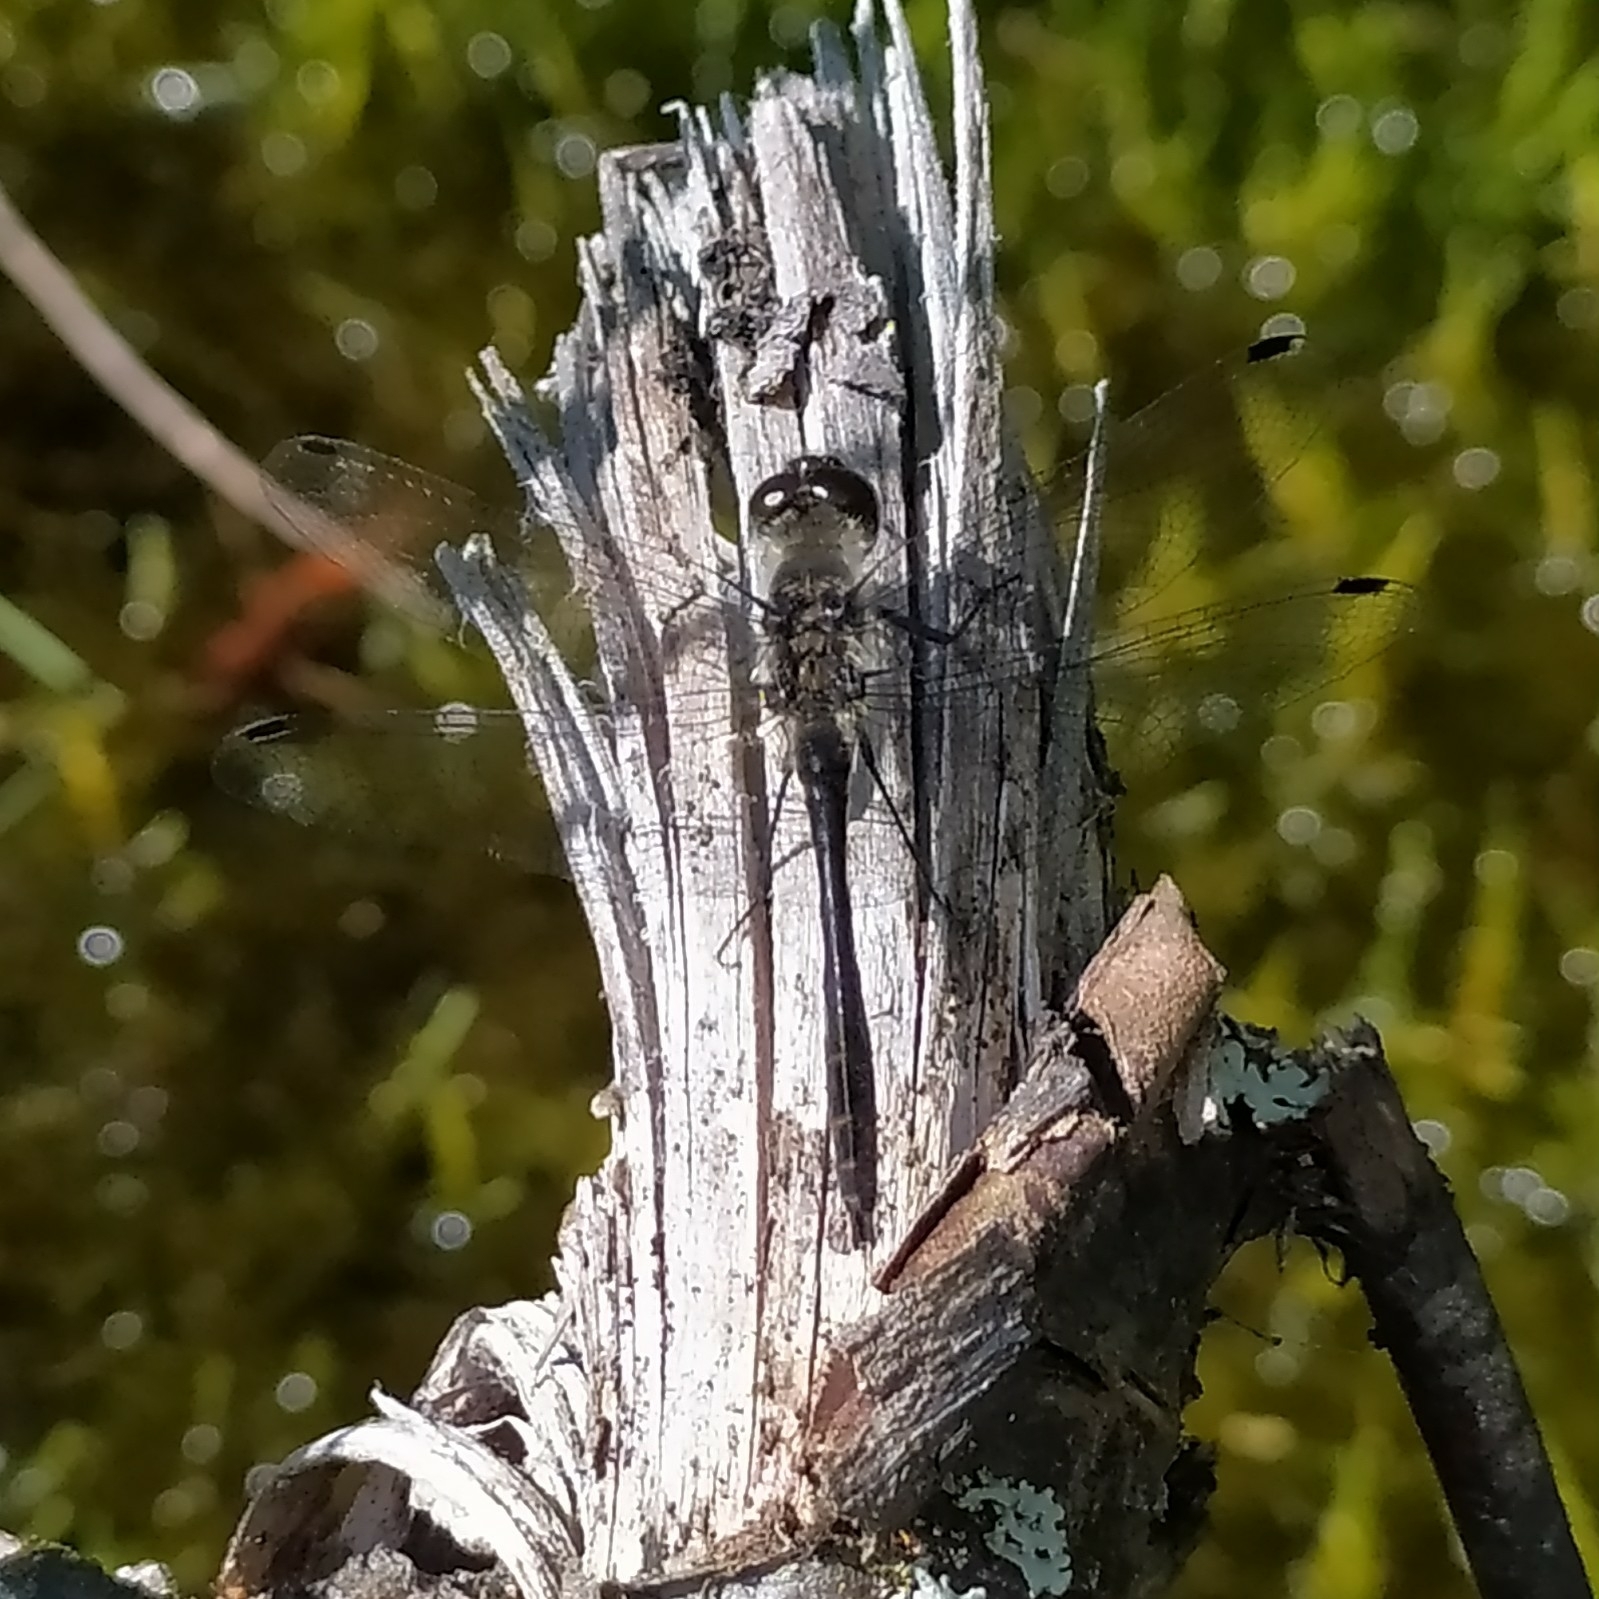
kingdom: Animalia
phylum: Arthropoda
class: Insecta
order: Odonata
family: Libellulidae
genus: Sympetrum
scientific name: Sympetrum danae
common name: Black darter
